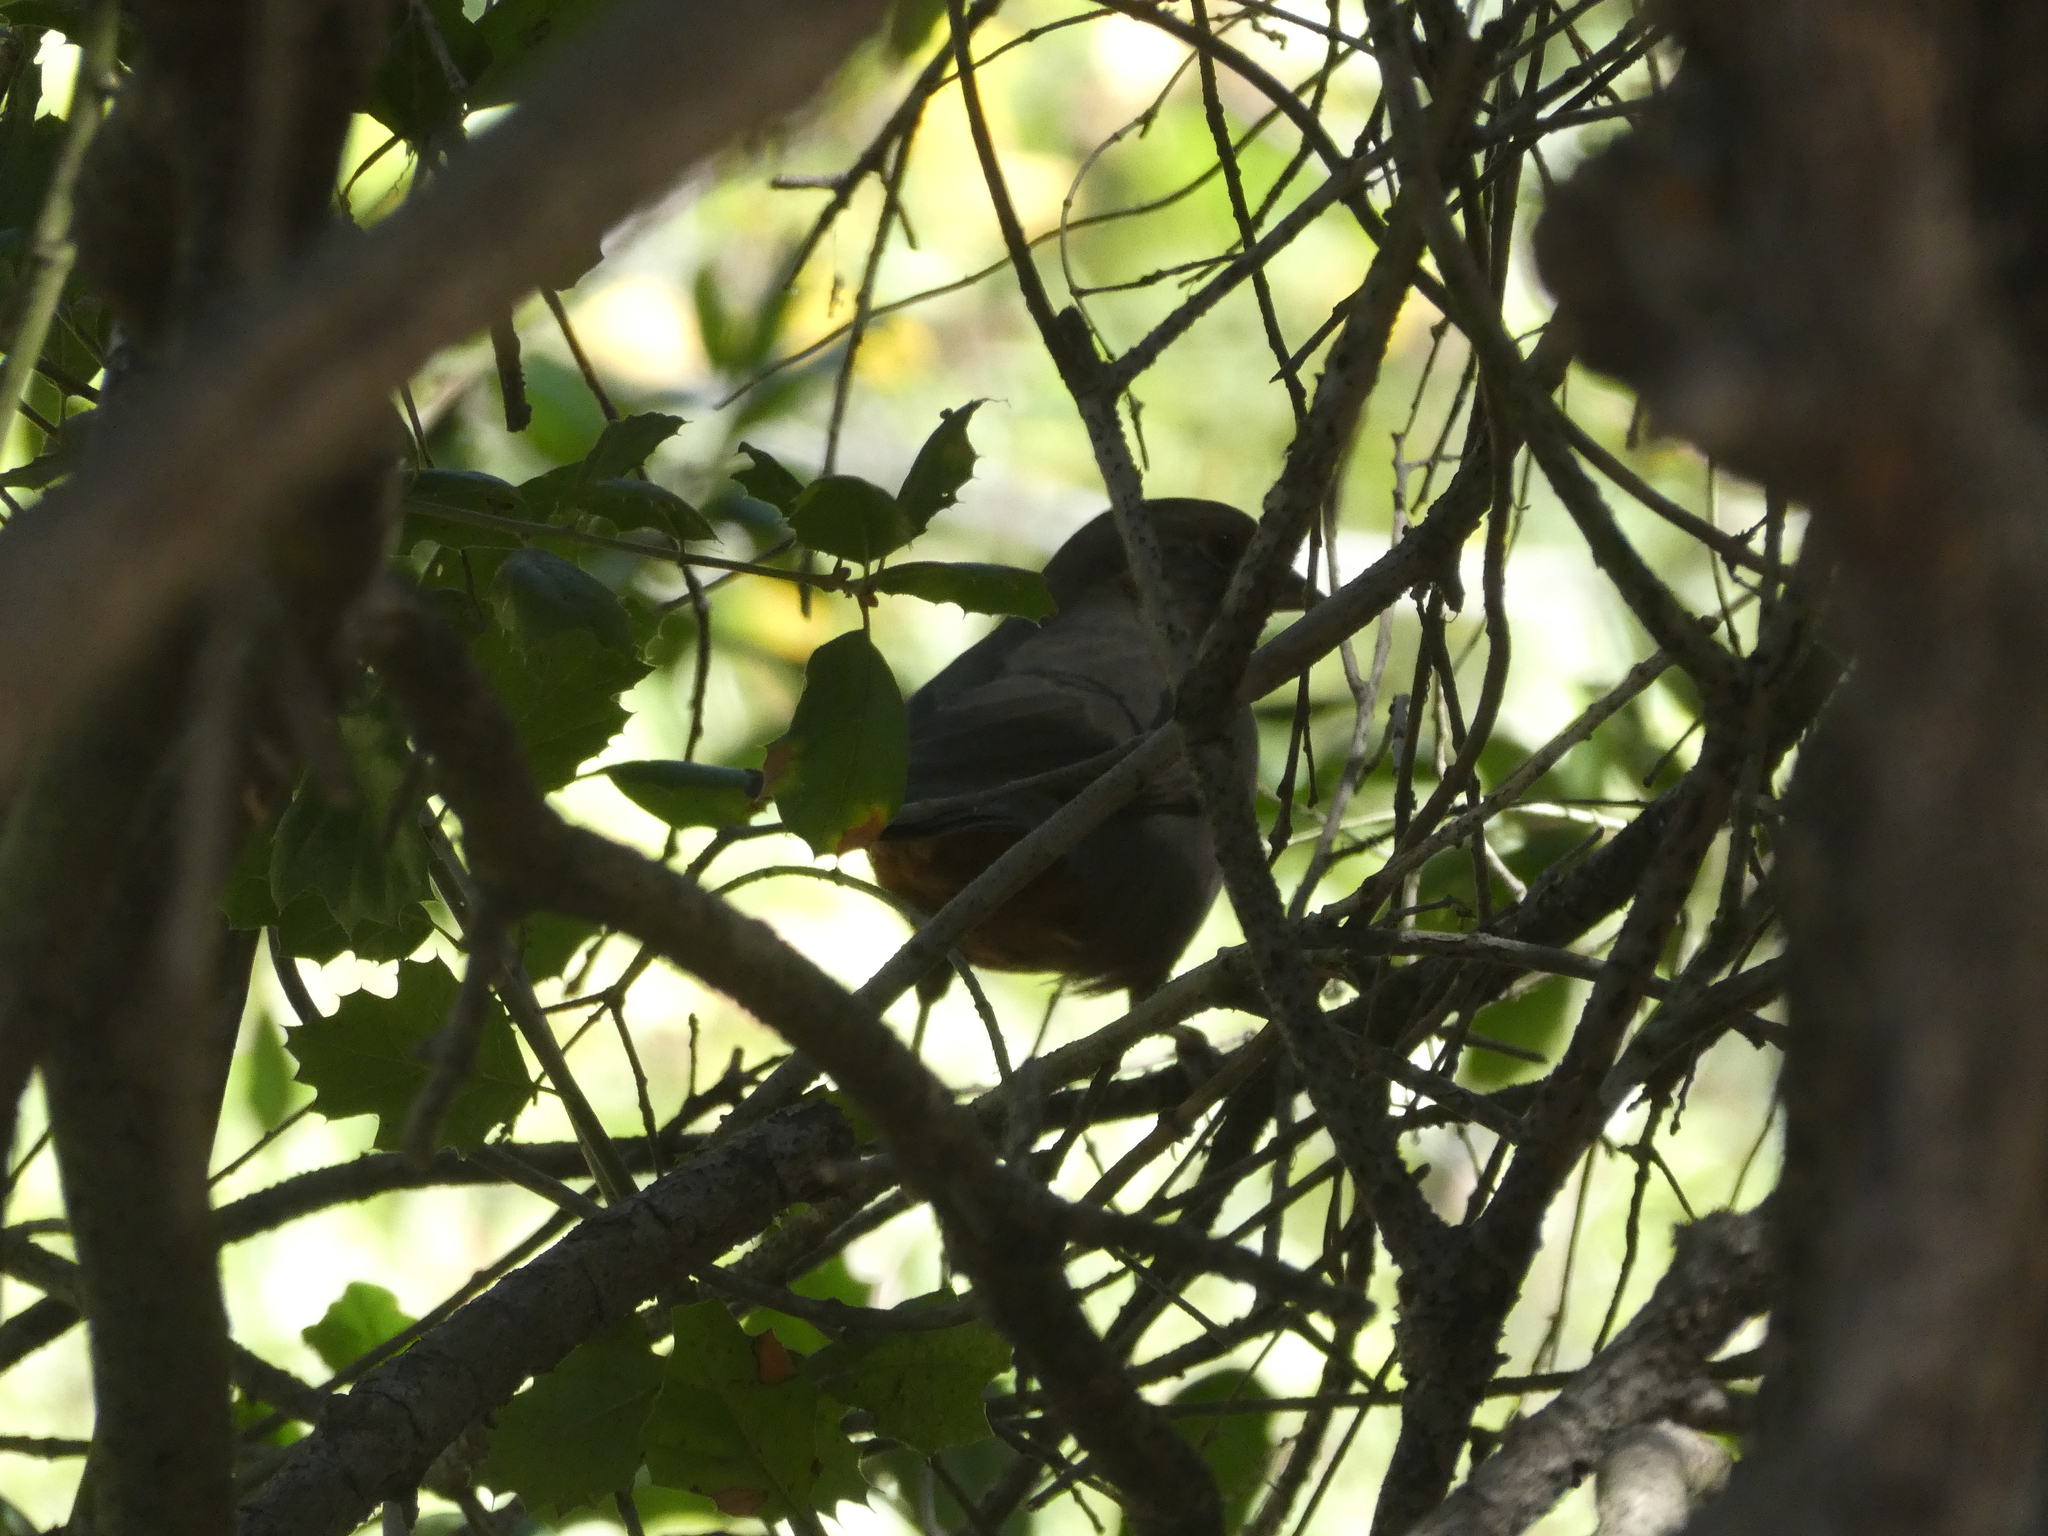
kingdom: Animalia
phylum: Chordata
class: Aves
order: Passeriformes
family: Passerellidae
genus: Melozone
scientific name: Melozone crissalis
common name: California towhee
